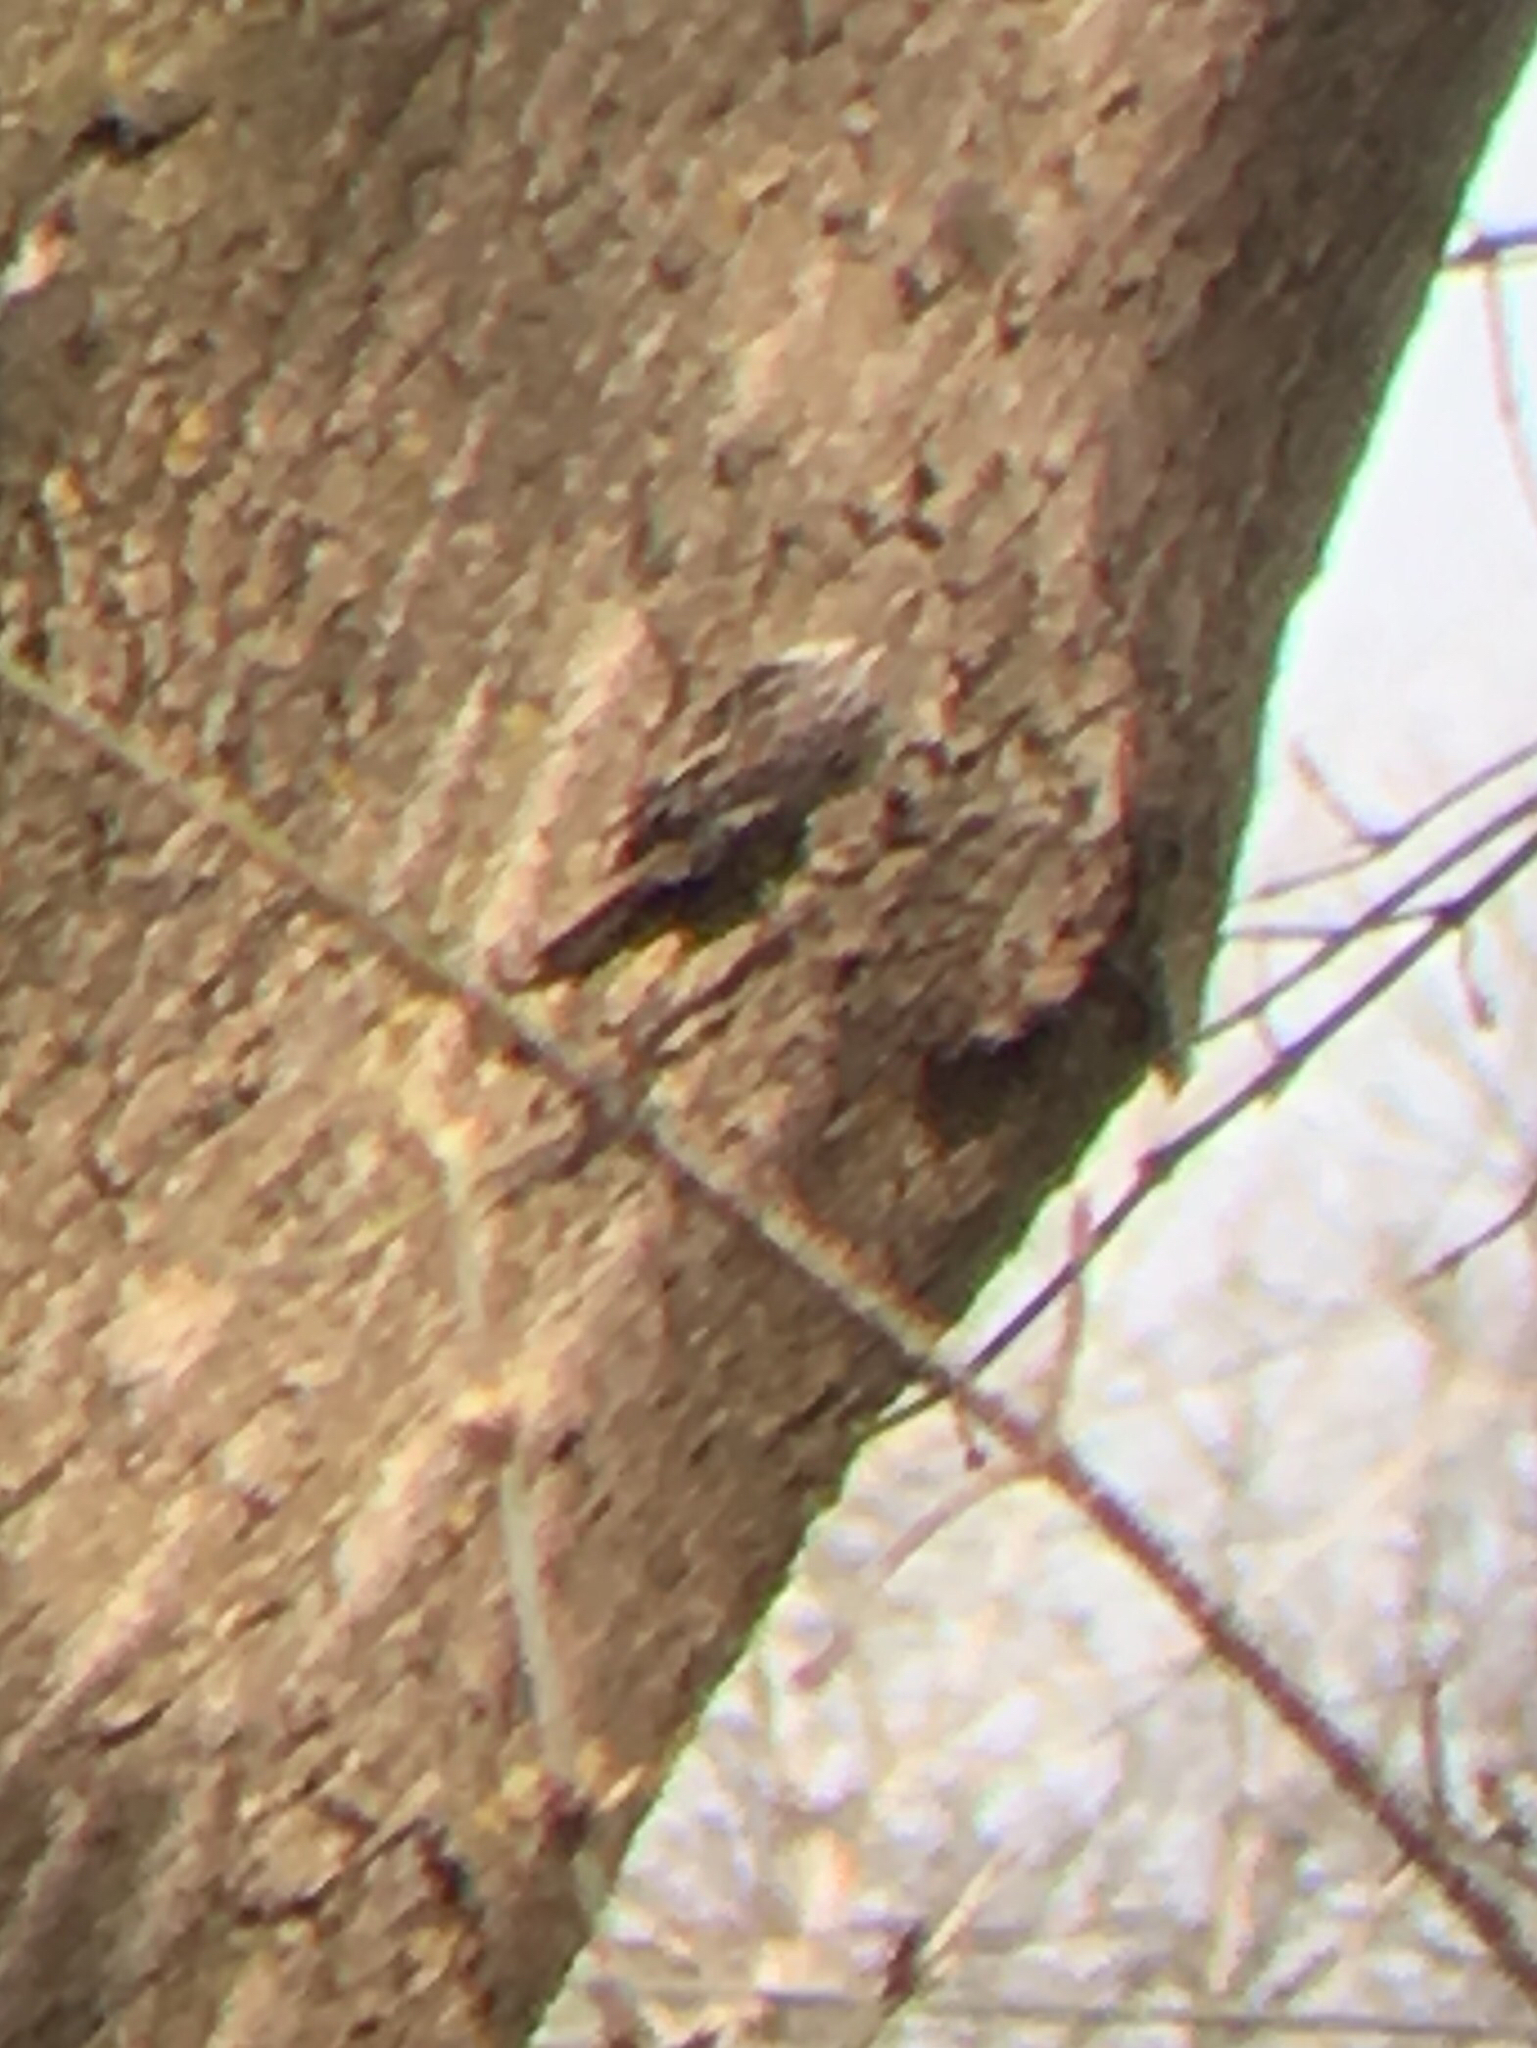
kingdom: Animalia
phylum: Chordata
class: Aves
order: Passeriformes
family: Certhiidae
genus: Certhia
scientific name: Certhia americana
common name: Brown creeper
